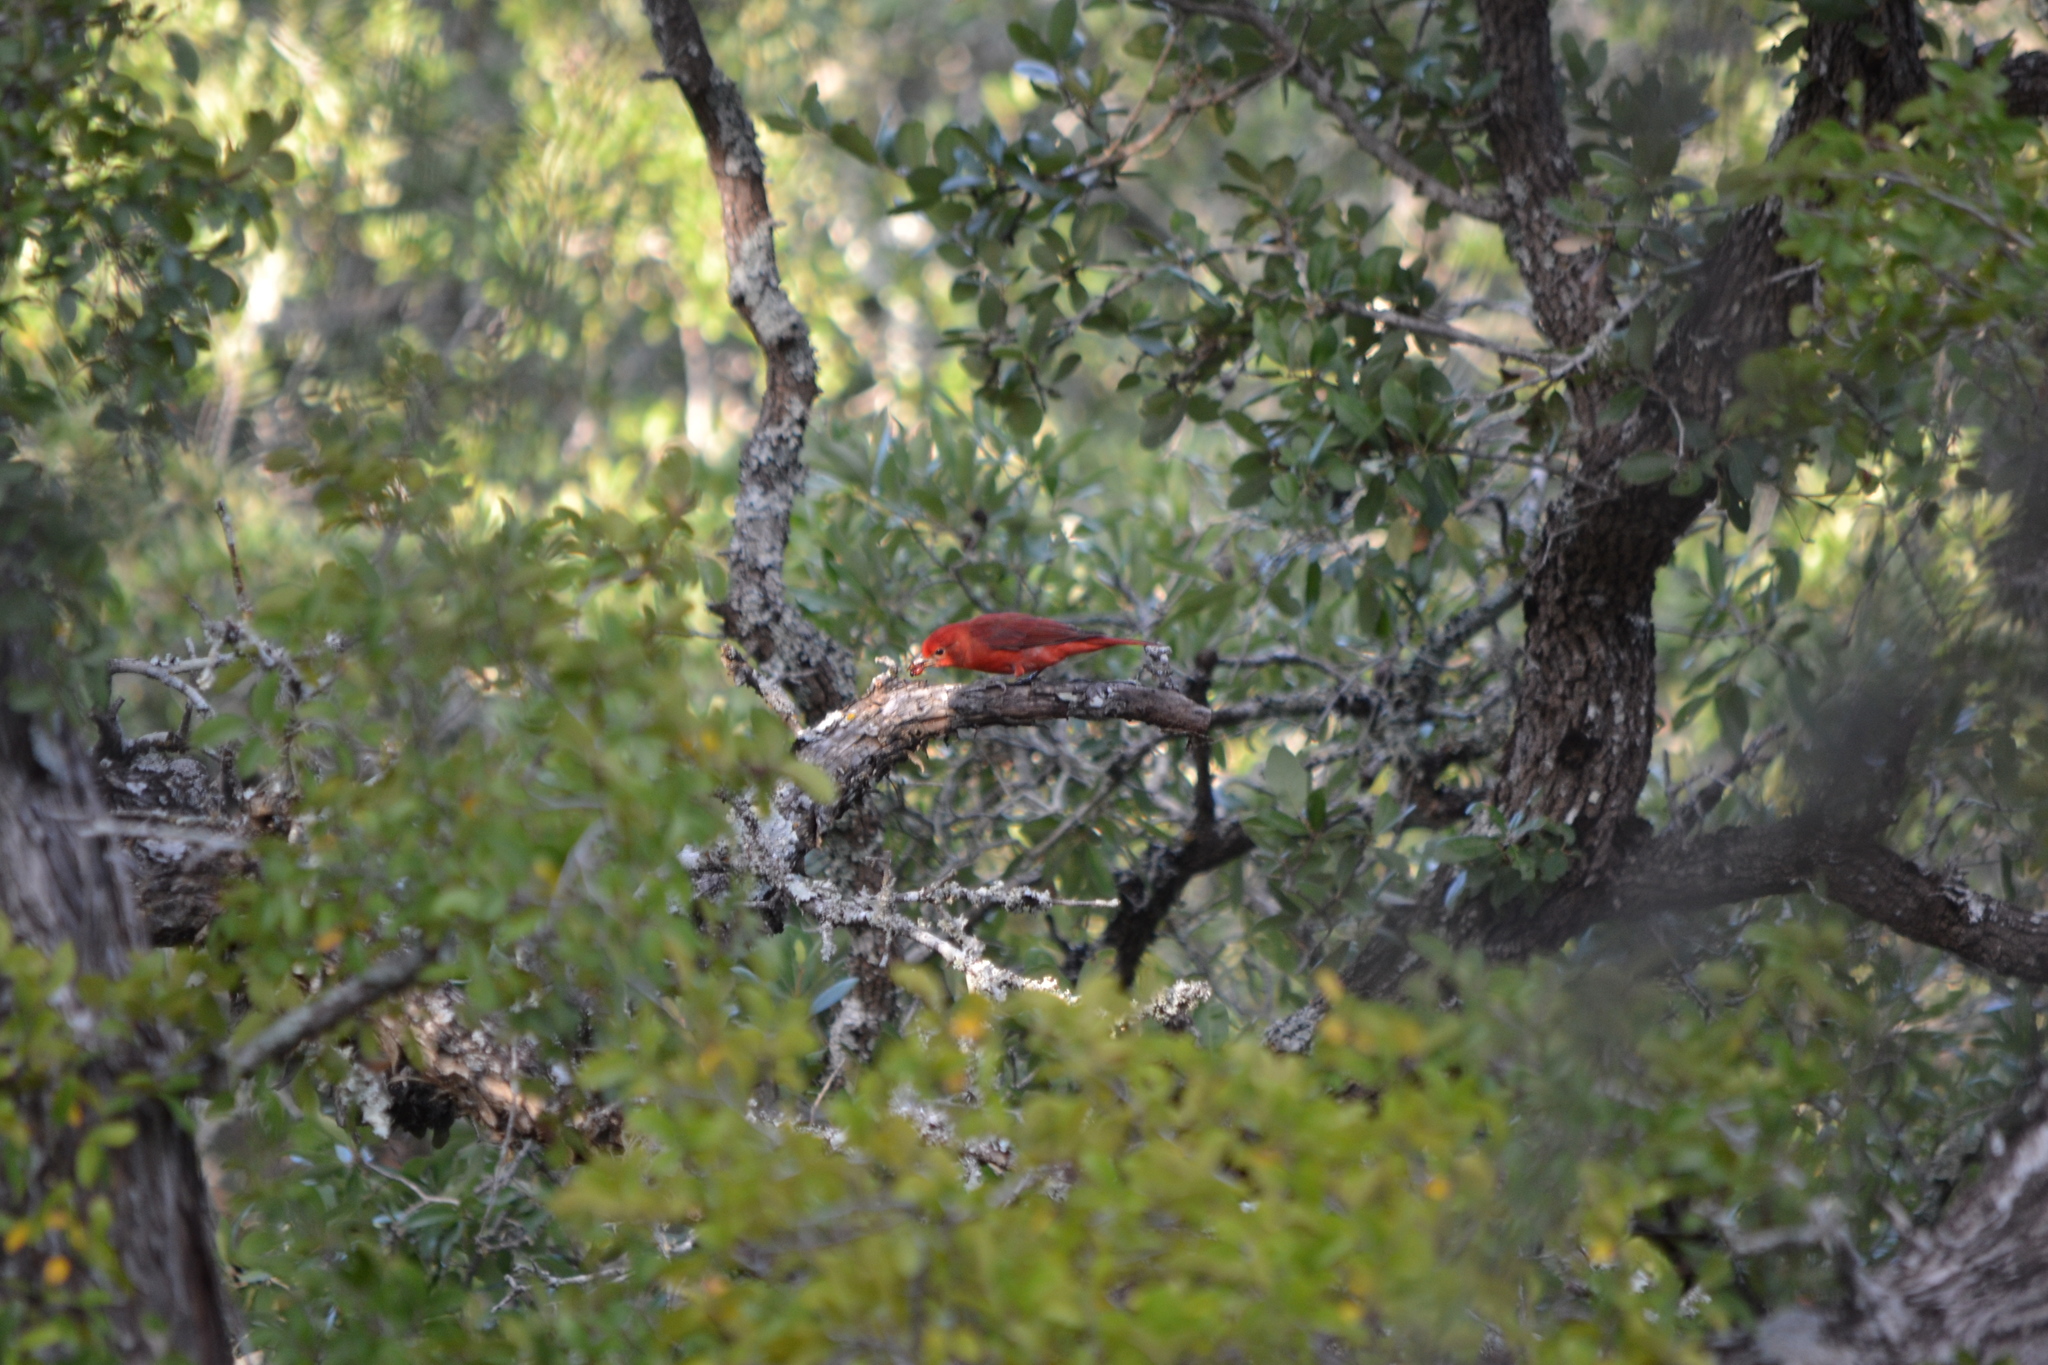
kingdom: Animalia
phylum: Chordata
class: Aves
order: Passeriformes
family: Cardinalidae
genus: Piranga
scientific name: Piranga rubra
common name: Summer tanager
